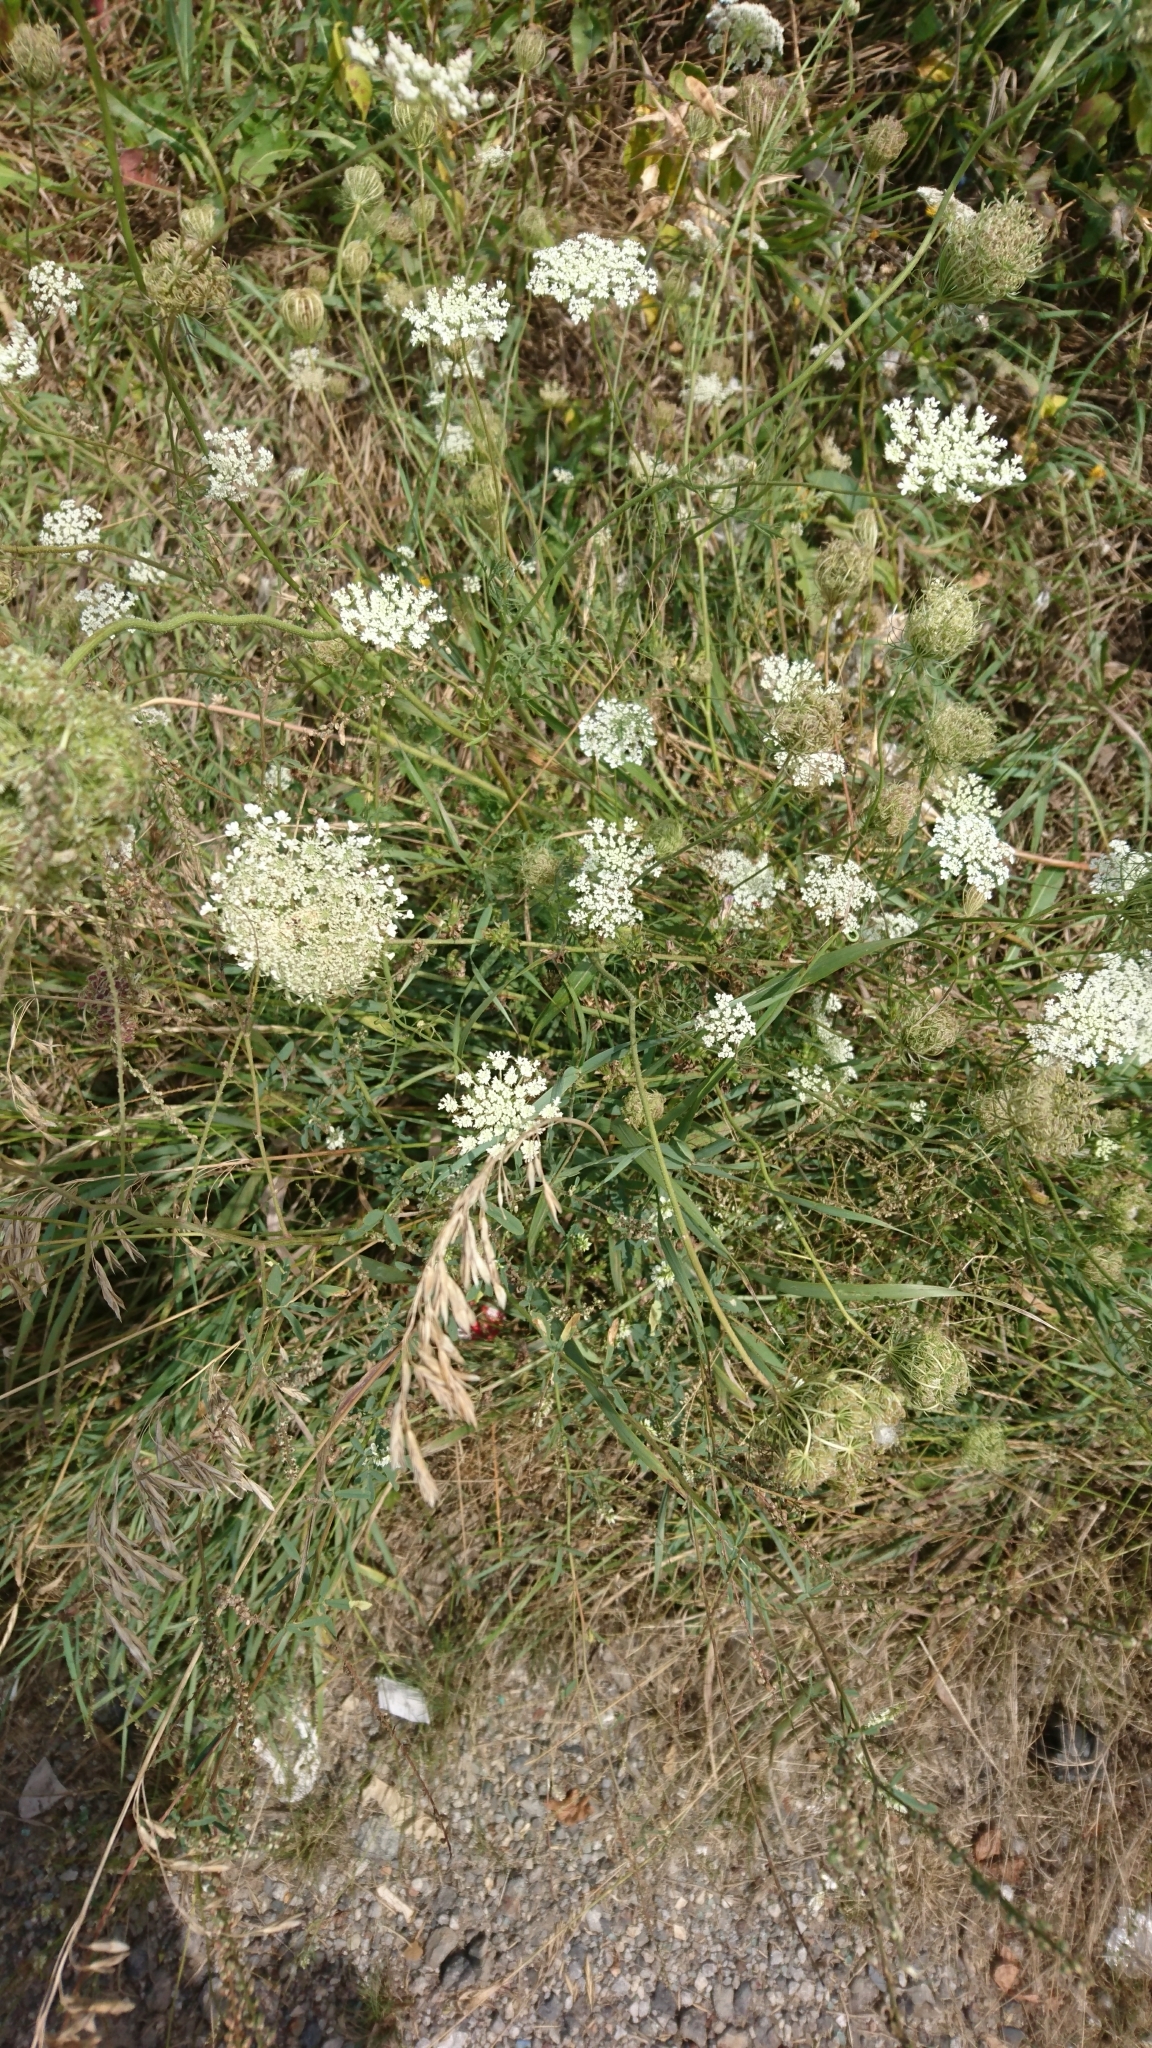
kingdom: Plantae
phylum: Tracheophyta
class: Magnoliopsida
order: Apiales
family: Apiaceae
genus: Daucus
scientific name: Daucus carota
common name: Wild carrot
